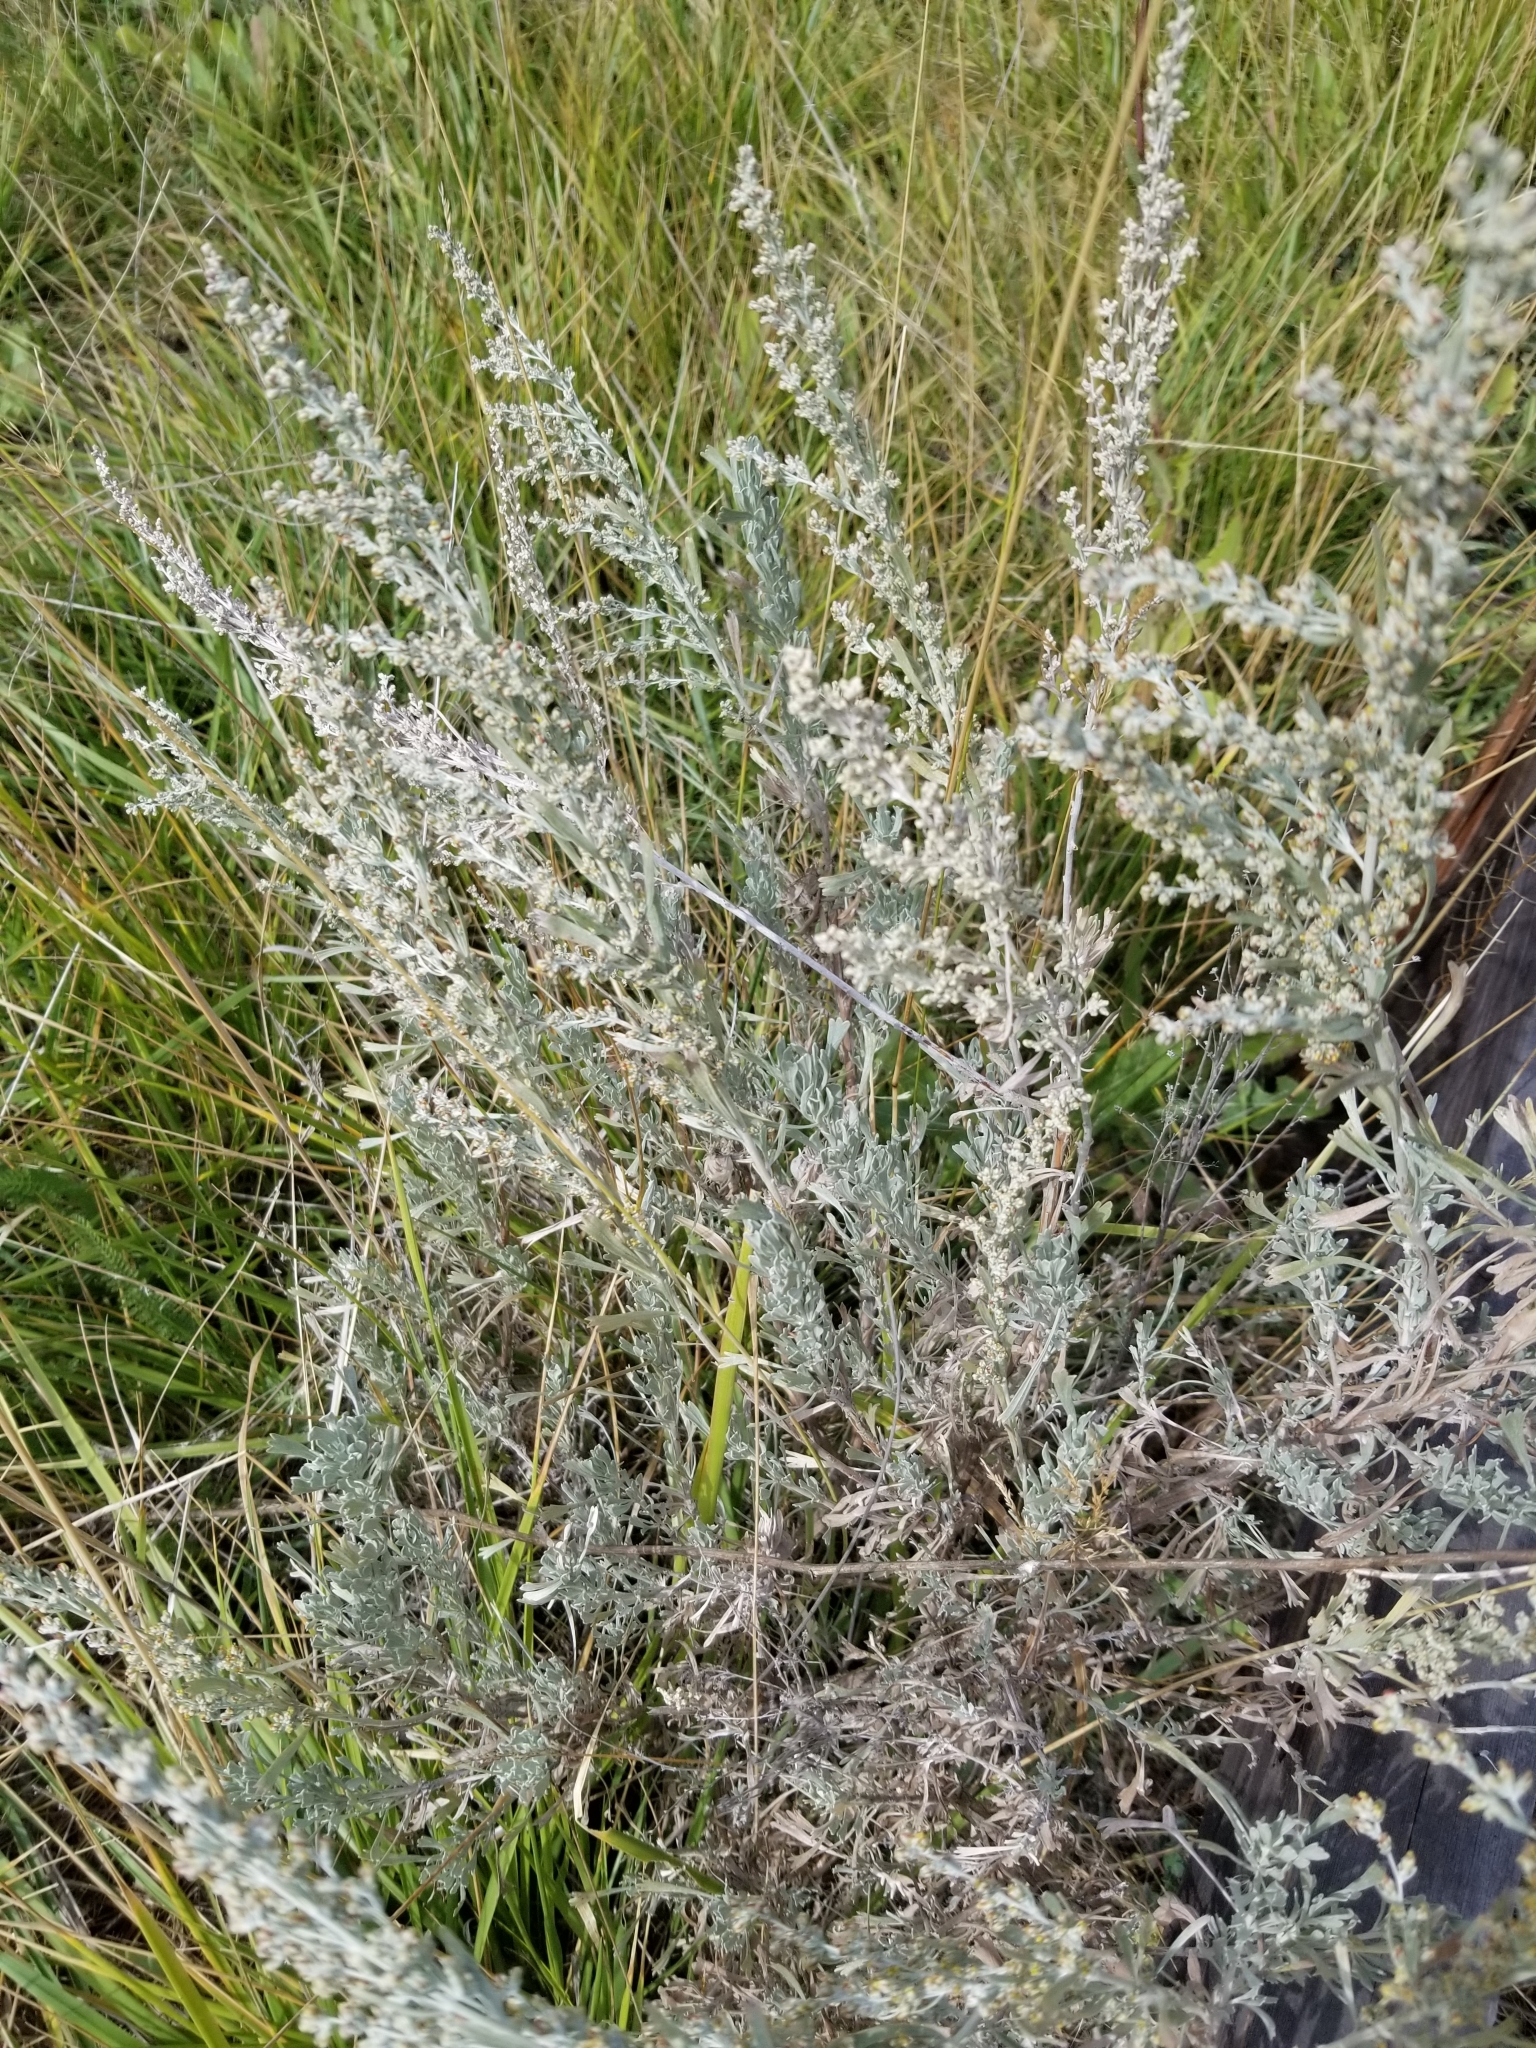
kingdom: Plantae
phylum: Tracheophyta
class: Magnoliopsida
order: Asterales
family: Asteraceae
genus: Artemisia
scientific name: Artemisia tridentata
